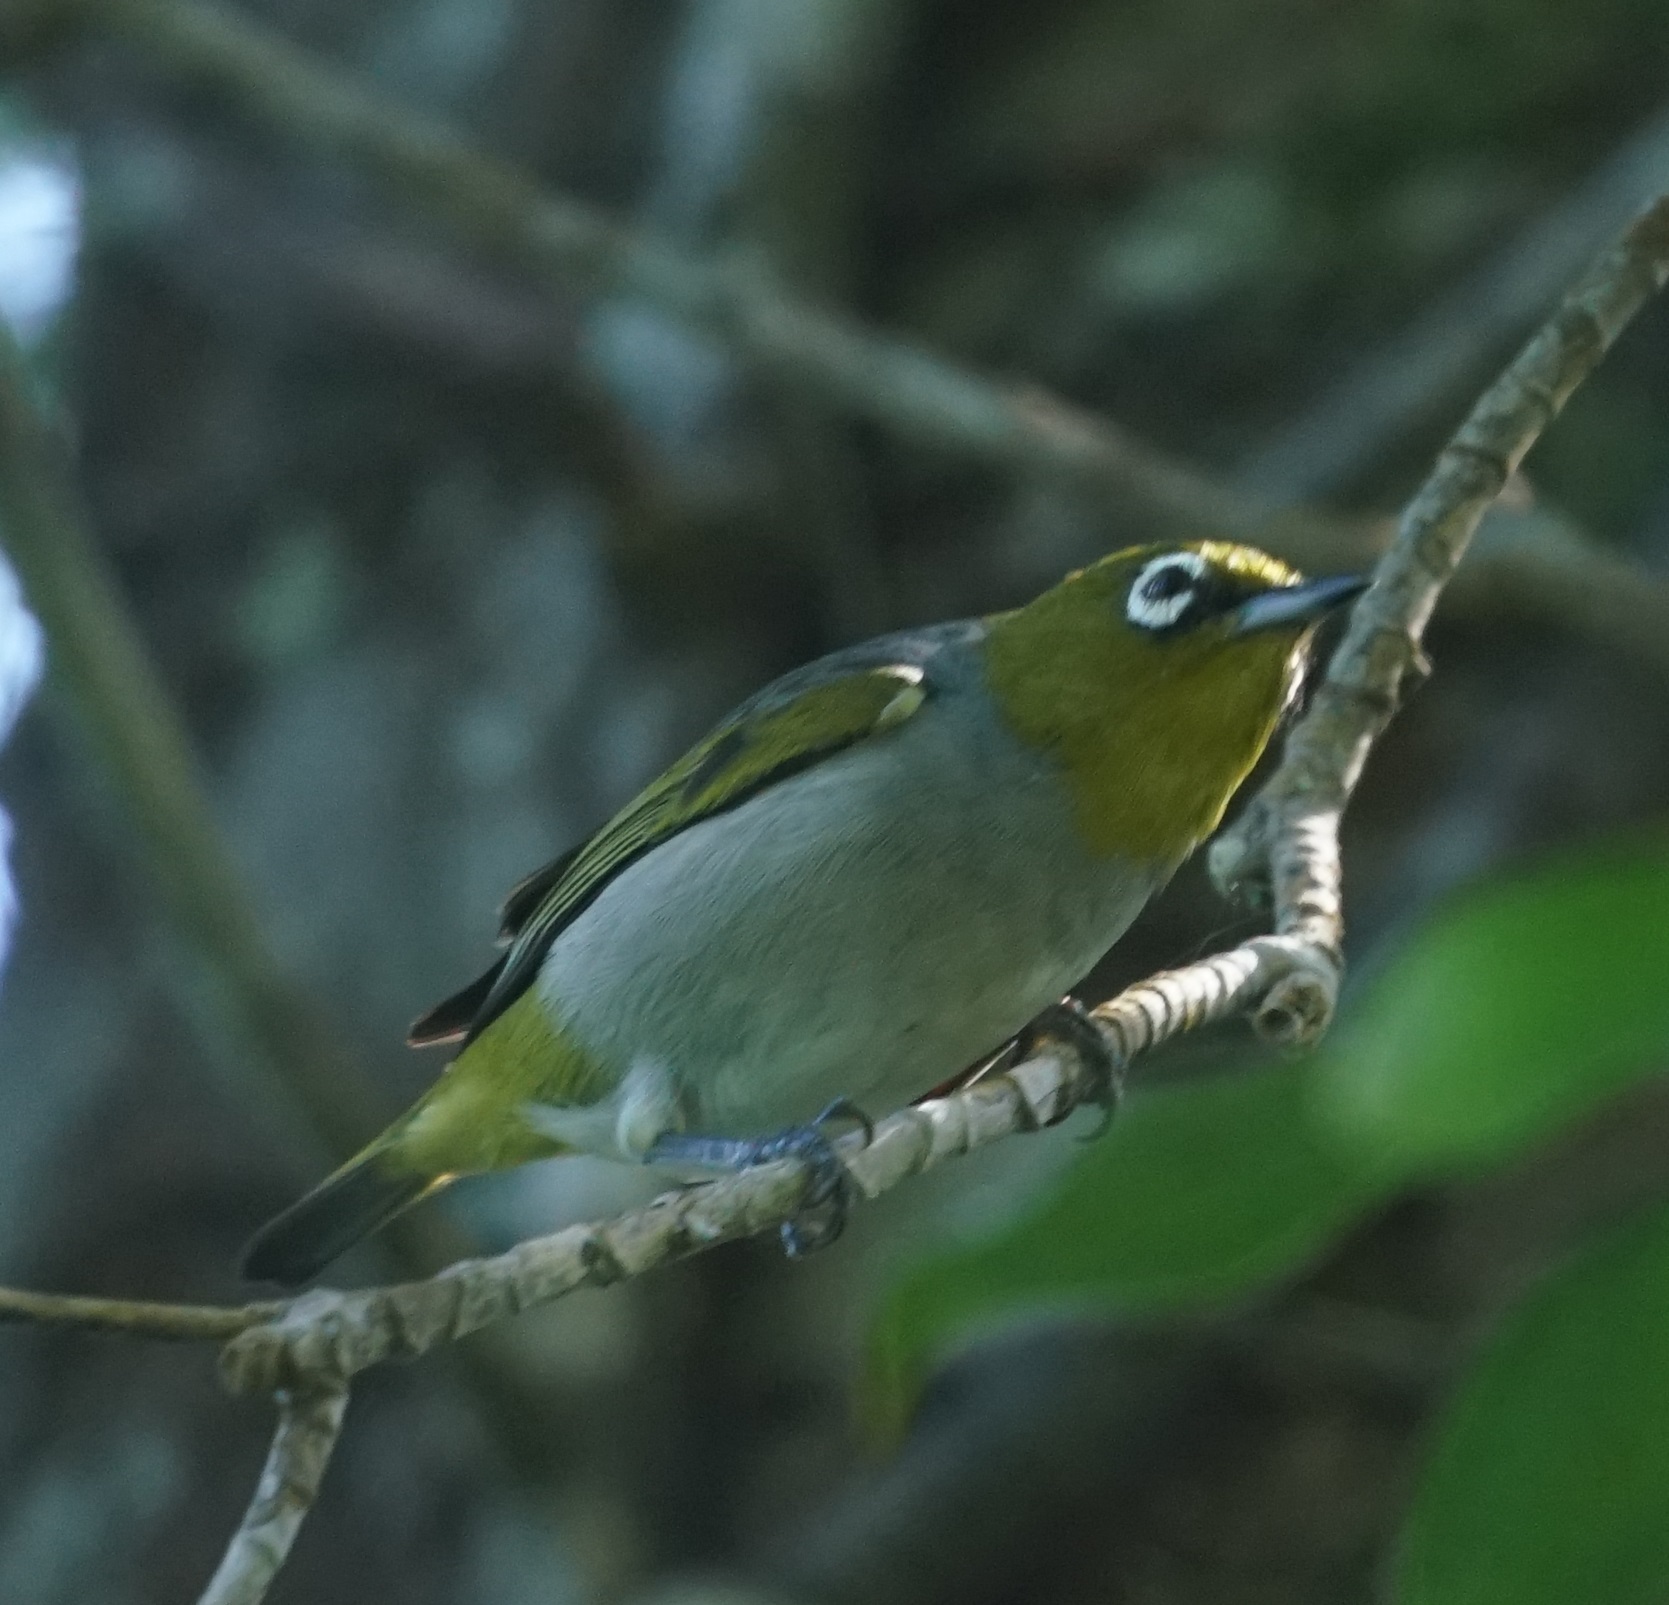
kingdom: Animalia
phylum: Chordata
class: Aves
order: Passeriformes
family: Zosteropidae
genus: Zosterops
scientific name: Zosterops lateralis
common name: Silvereye
